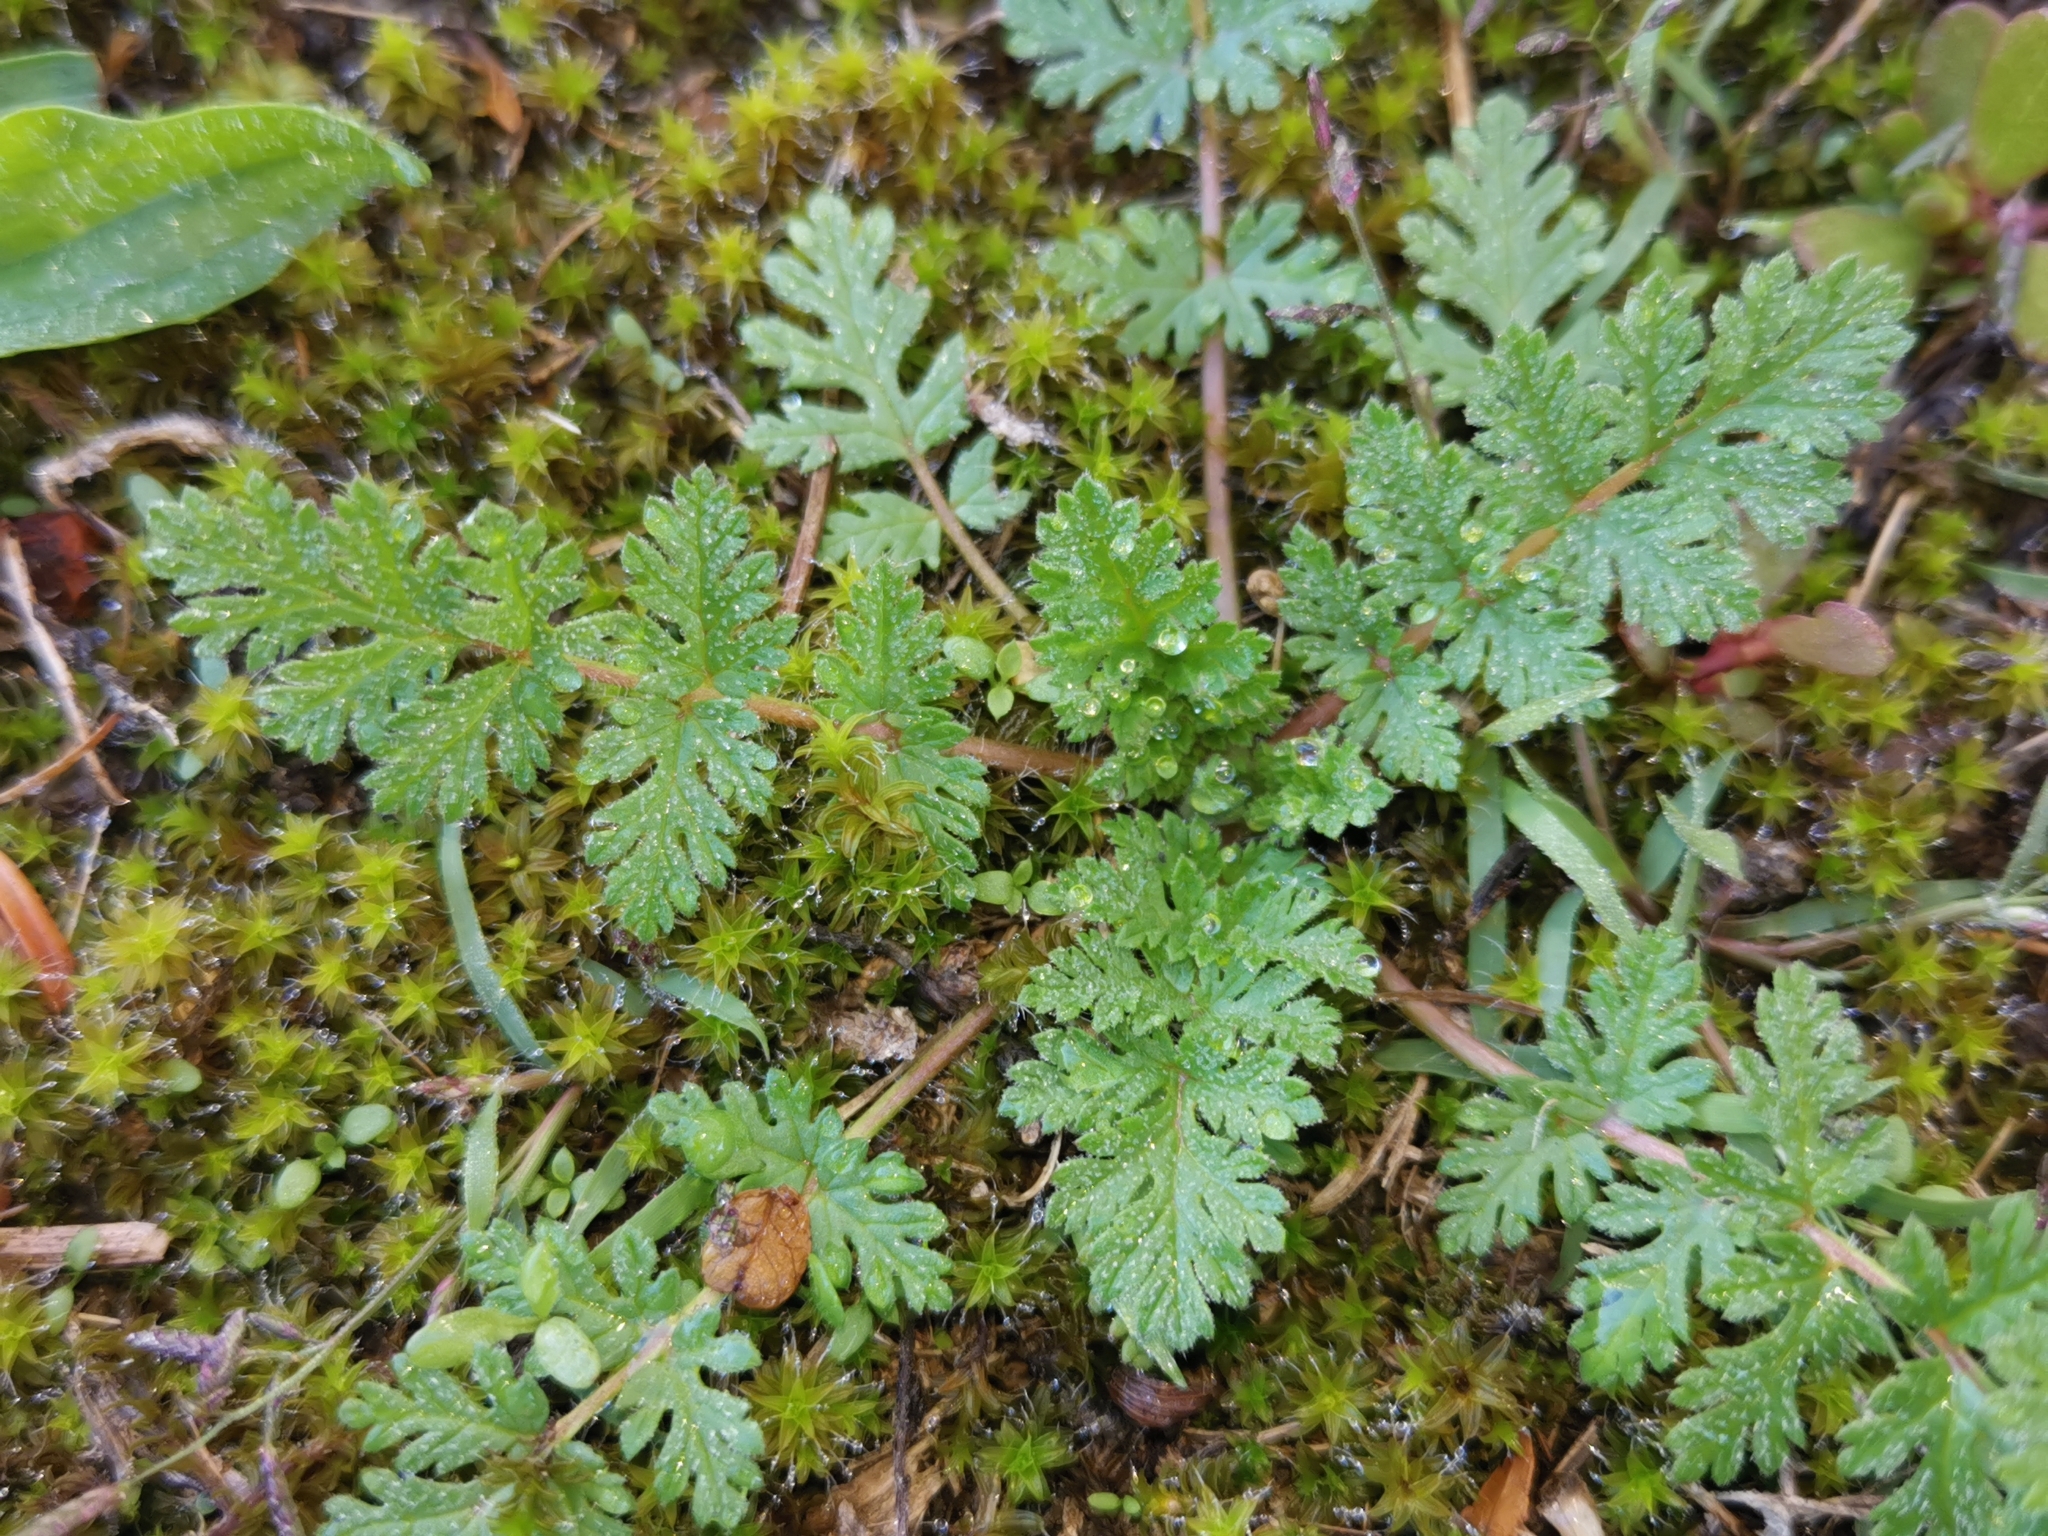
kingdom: Plantae
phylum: Tracheophyta
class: Magnoliopsida
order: Geraniales
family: Geraniaceae
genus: Erodium
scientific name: Erodium cicutarium
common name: Common stork's-bill
